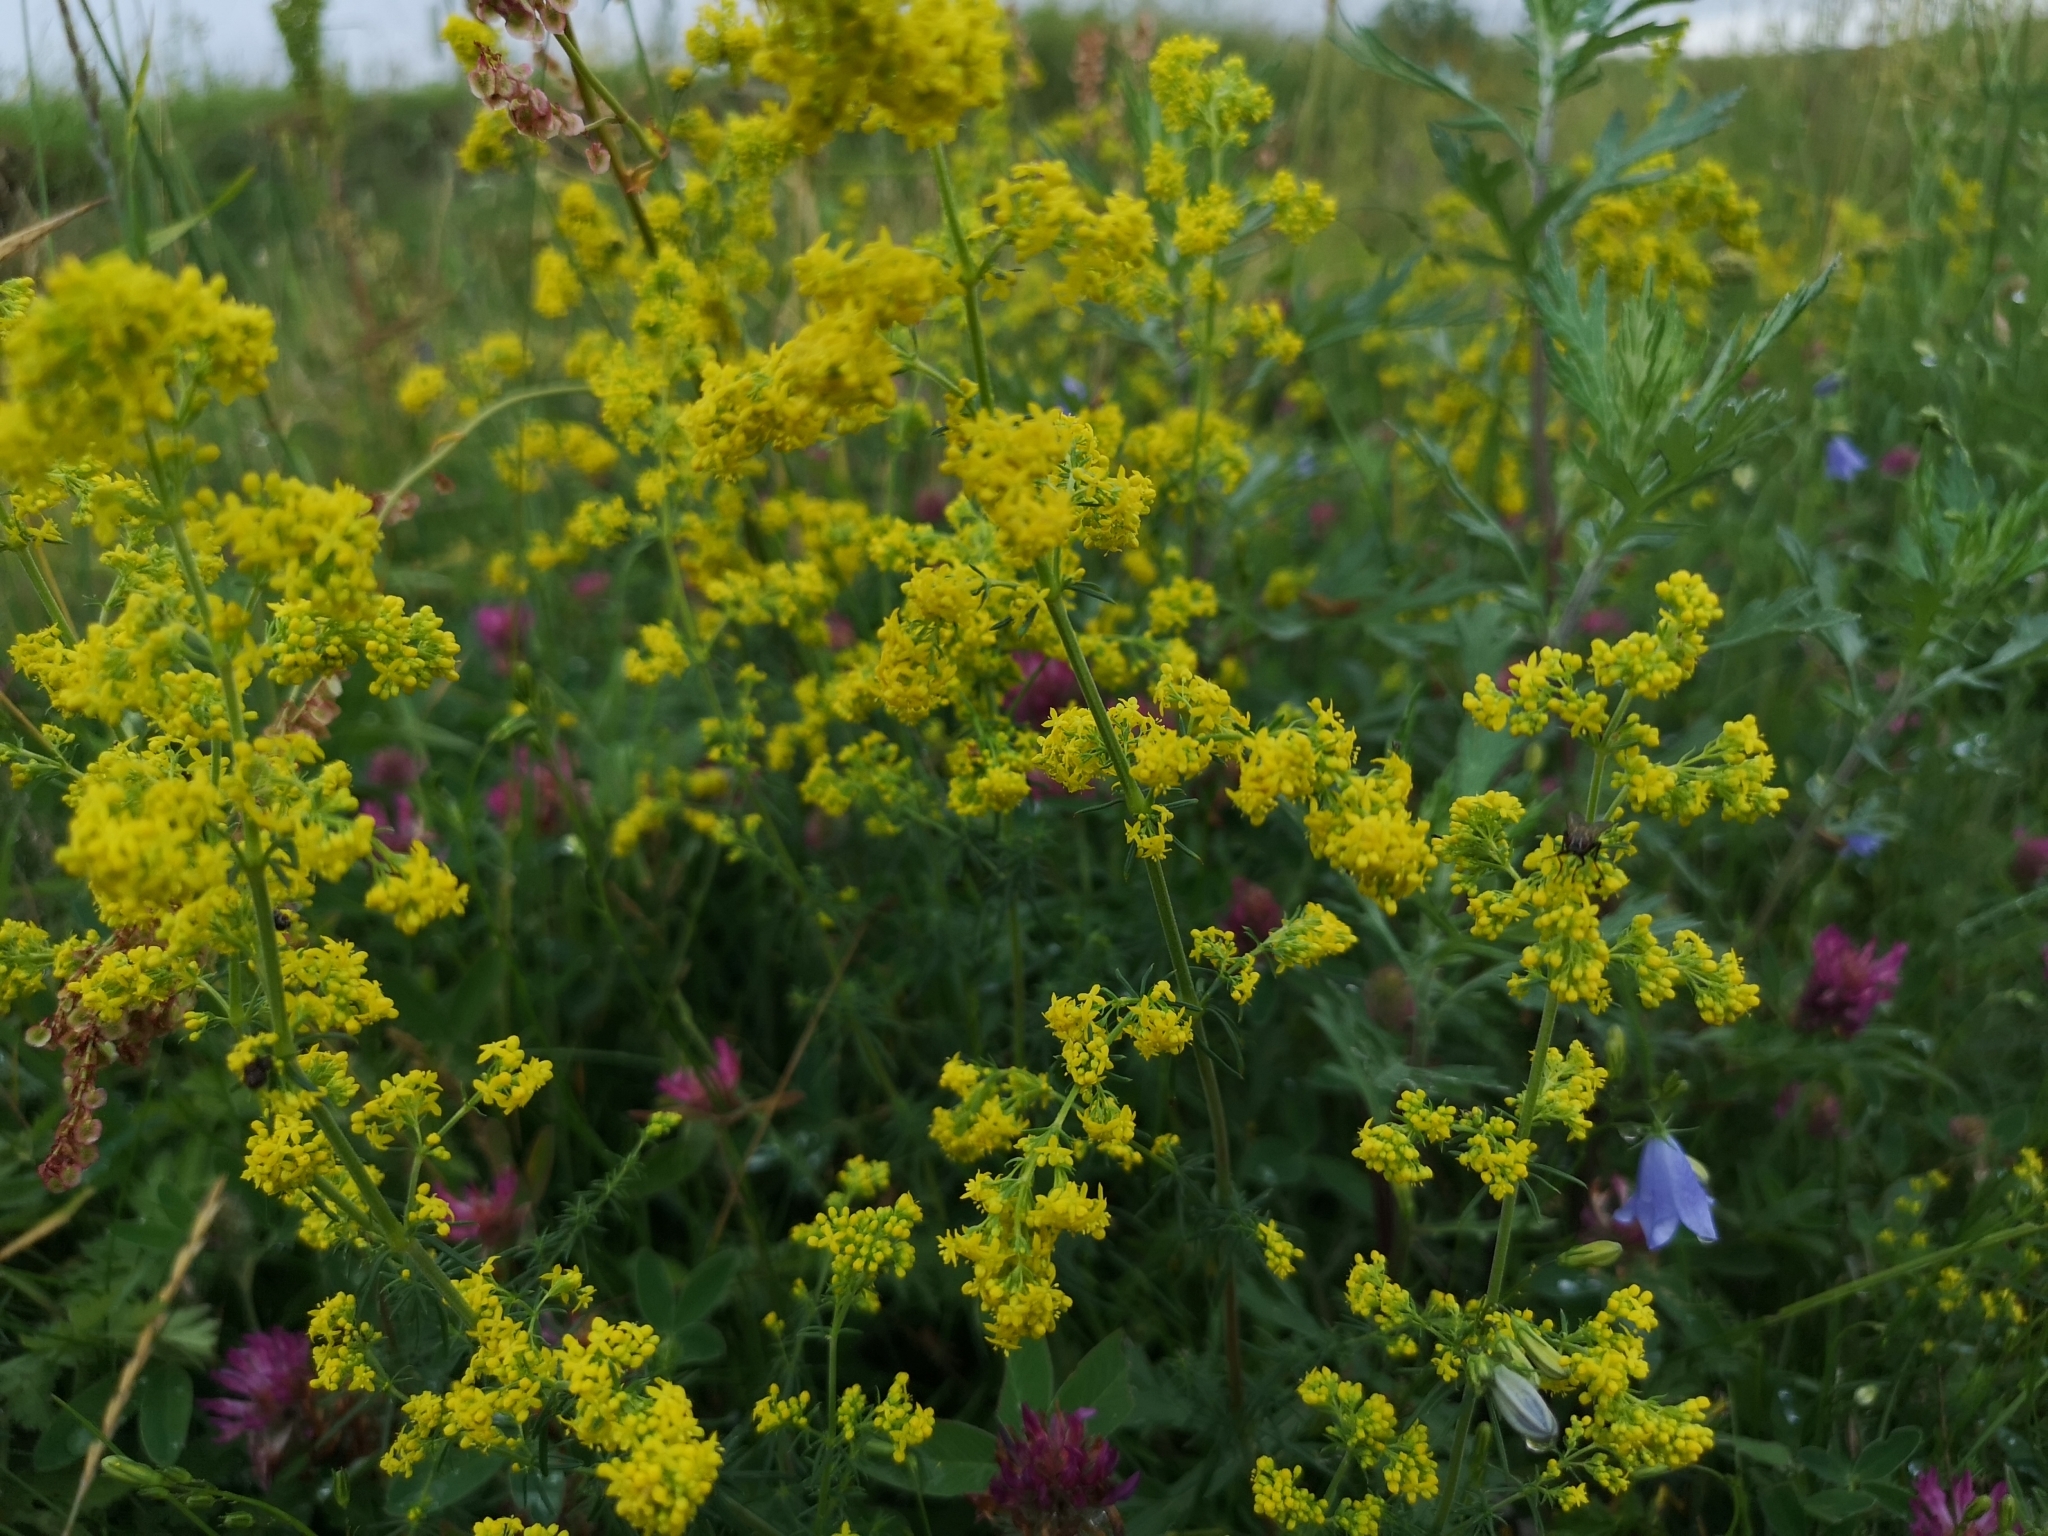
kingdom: Plantae
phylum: Tracheophyta
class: Magnoliopsida
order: Gentianales
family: Rubiaceae
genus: Galium
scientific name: Galium verum
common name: Lady's bedstraw
